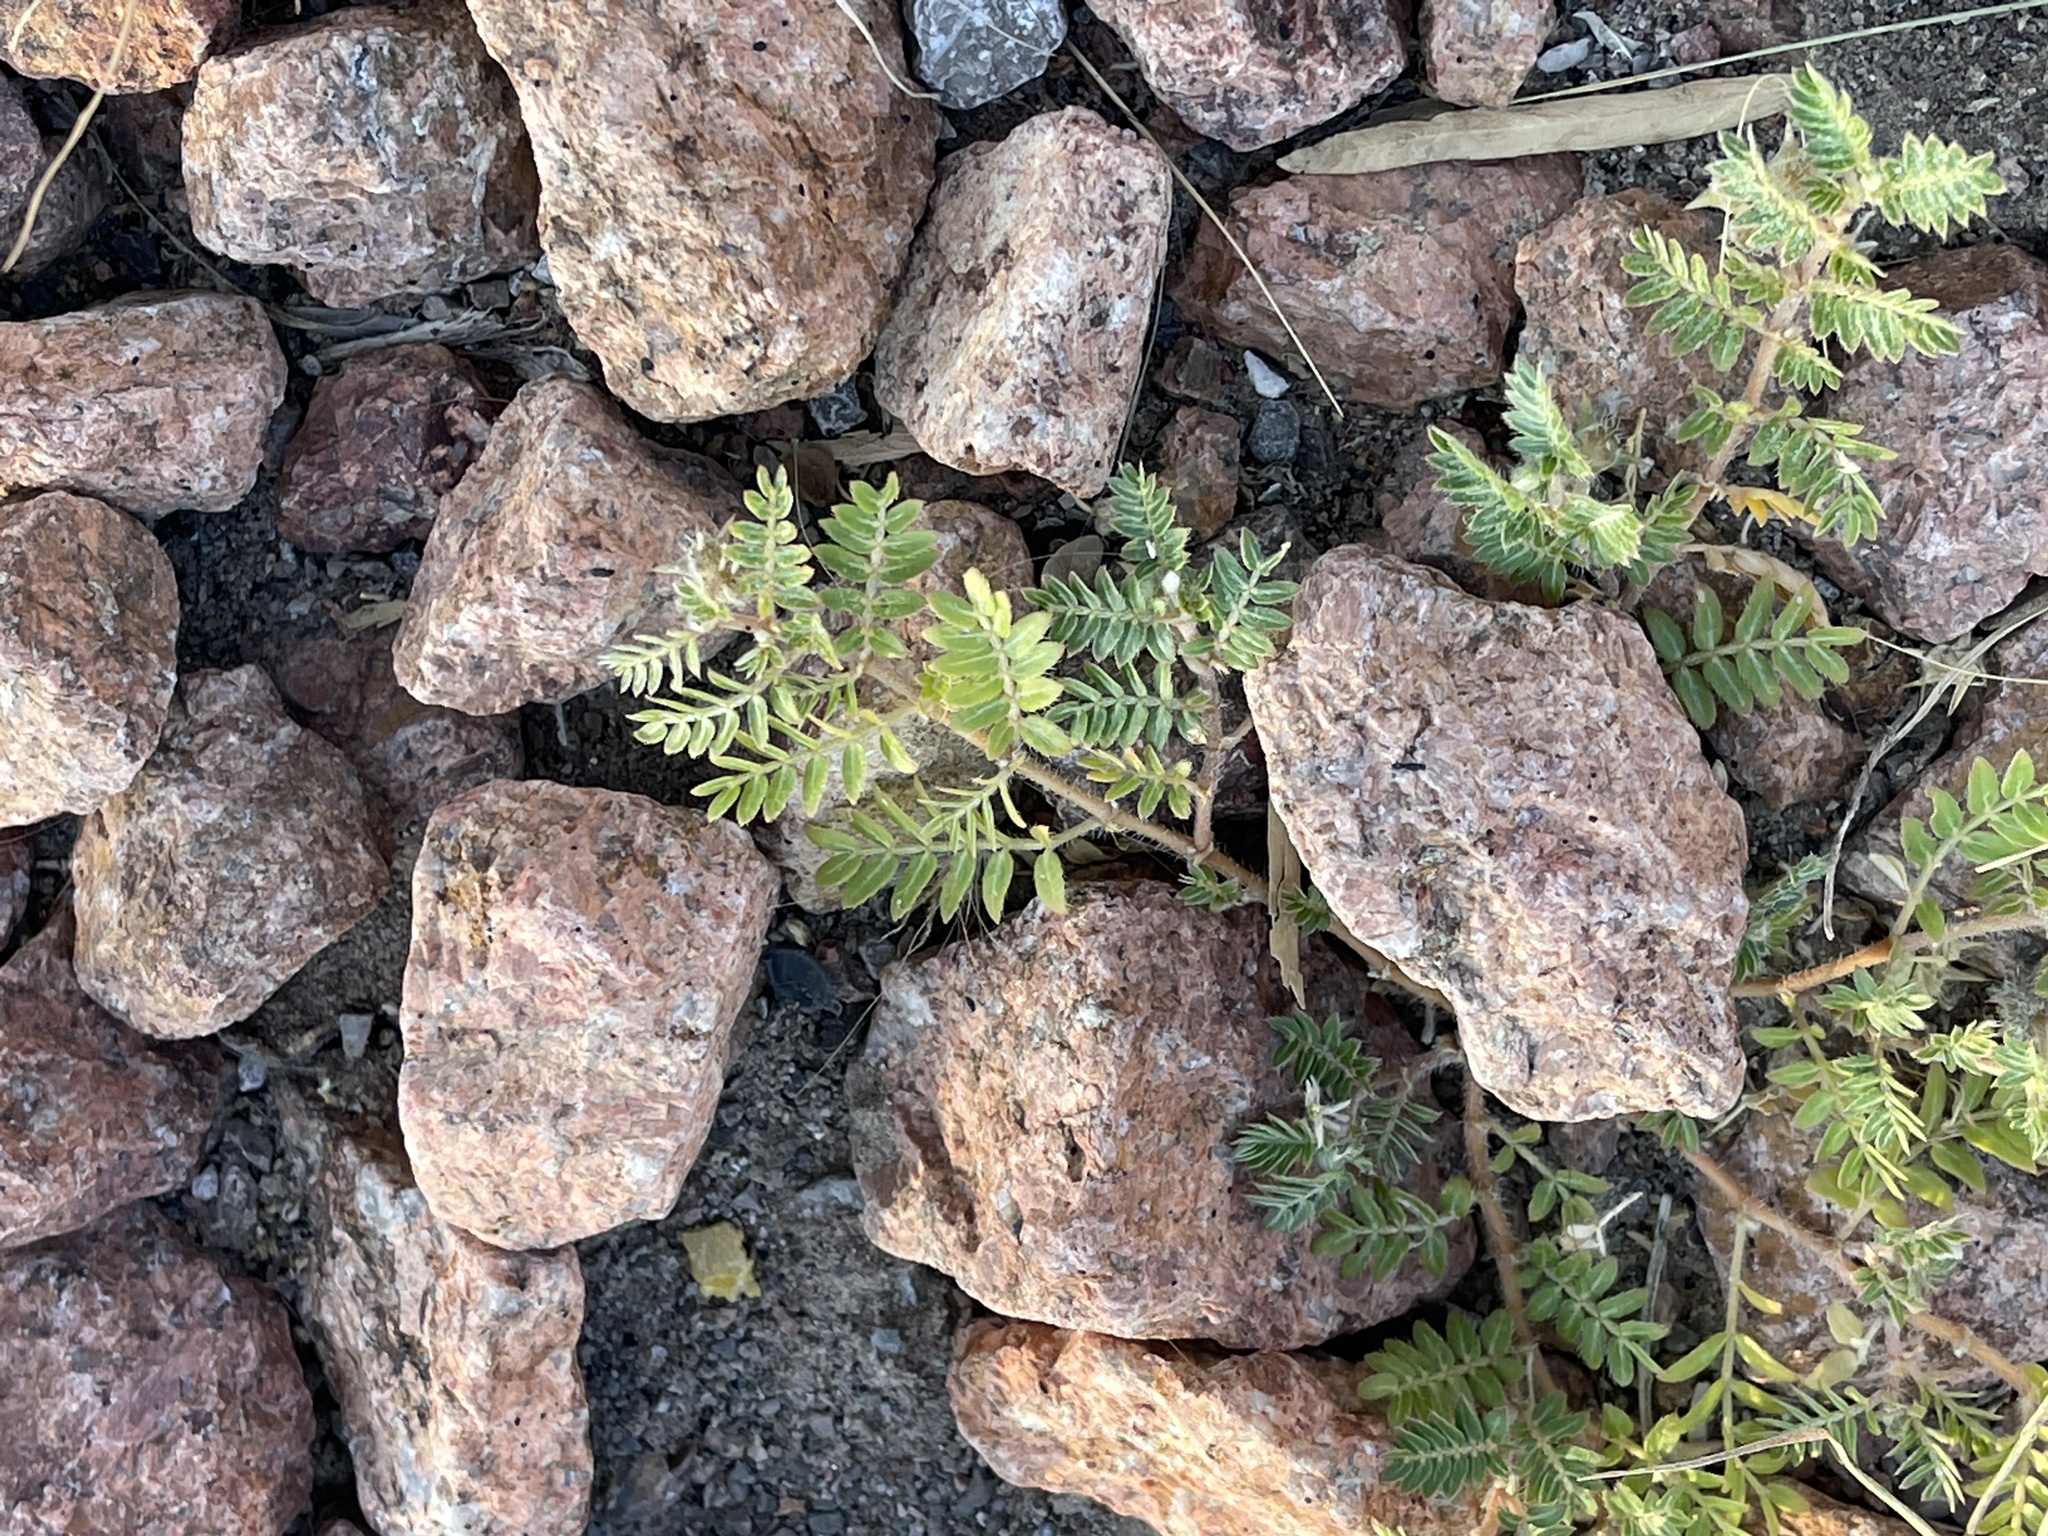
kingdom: Plantae
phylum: Tracheophyta
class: Magnoliopsida
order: Zygophyllales
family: Zygophyllaceae
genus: Tribulus
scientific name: Tribulus terrestris
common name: Puncturevine
